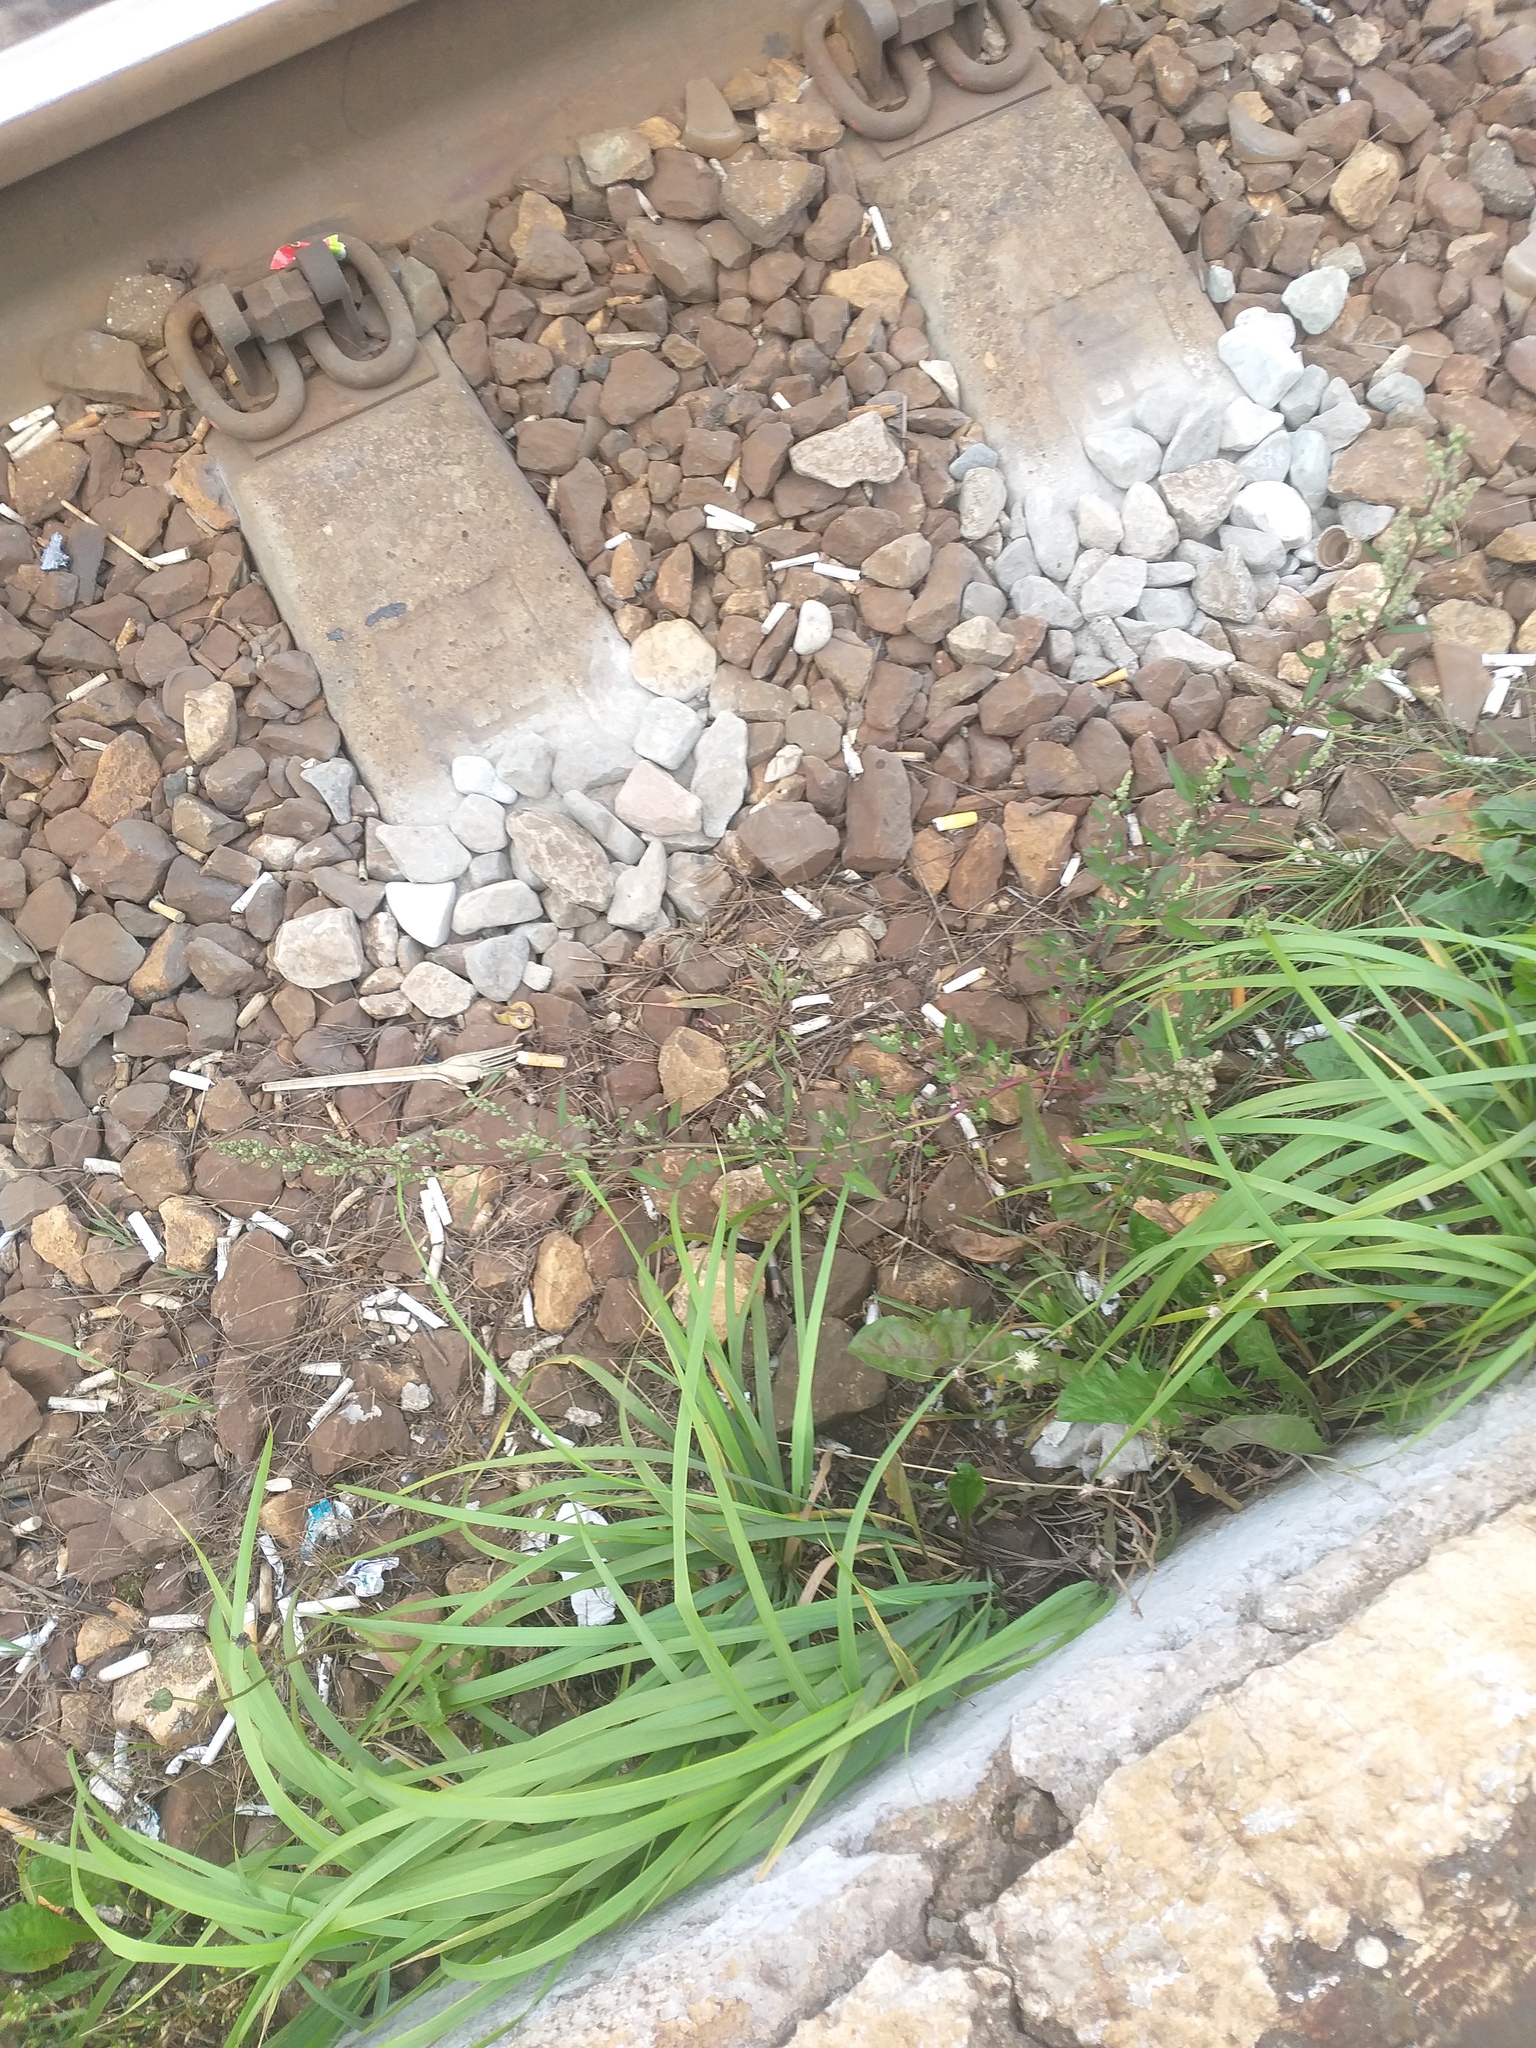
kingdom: Plantae
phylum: Tracheophyta
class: Magnoliopsida
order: Caryophyllales
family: Amaranthaceae
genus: Chenopodium
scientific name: Chenopodium betaceum
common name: Striped goosefoot
